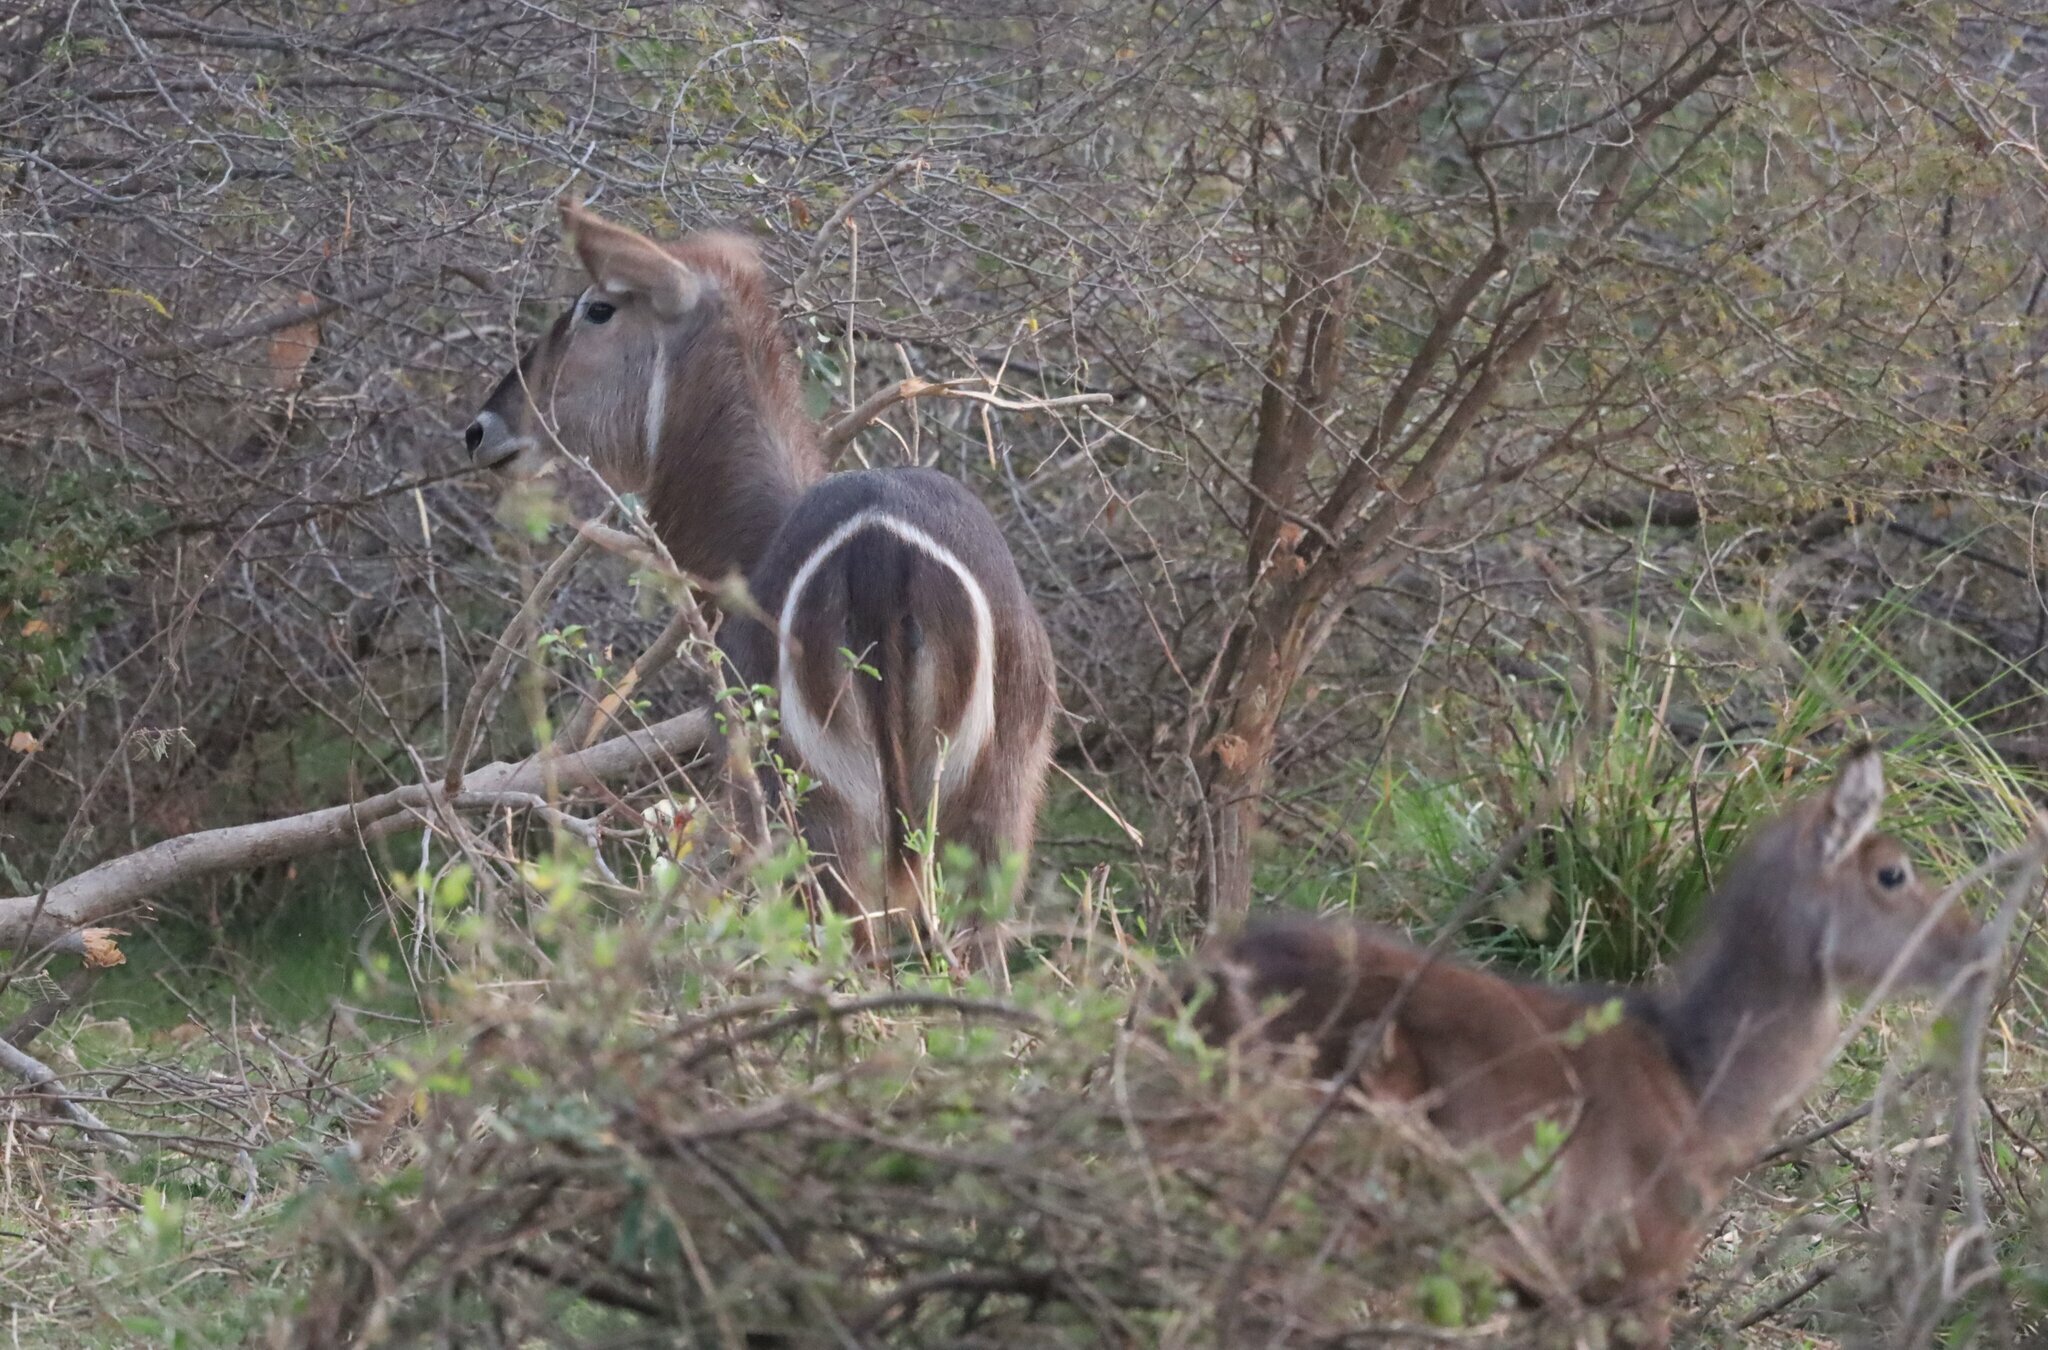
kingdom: Animalia
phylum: Chordata
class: Mammalia
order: Artiodactyla
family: Bovidae
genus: Kobus
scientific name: Kobus ellipsiprymnus
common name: Waterbuck
